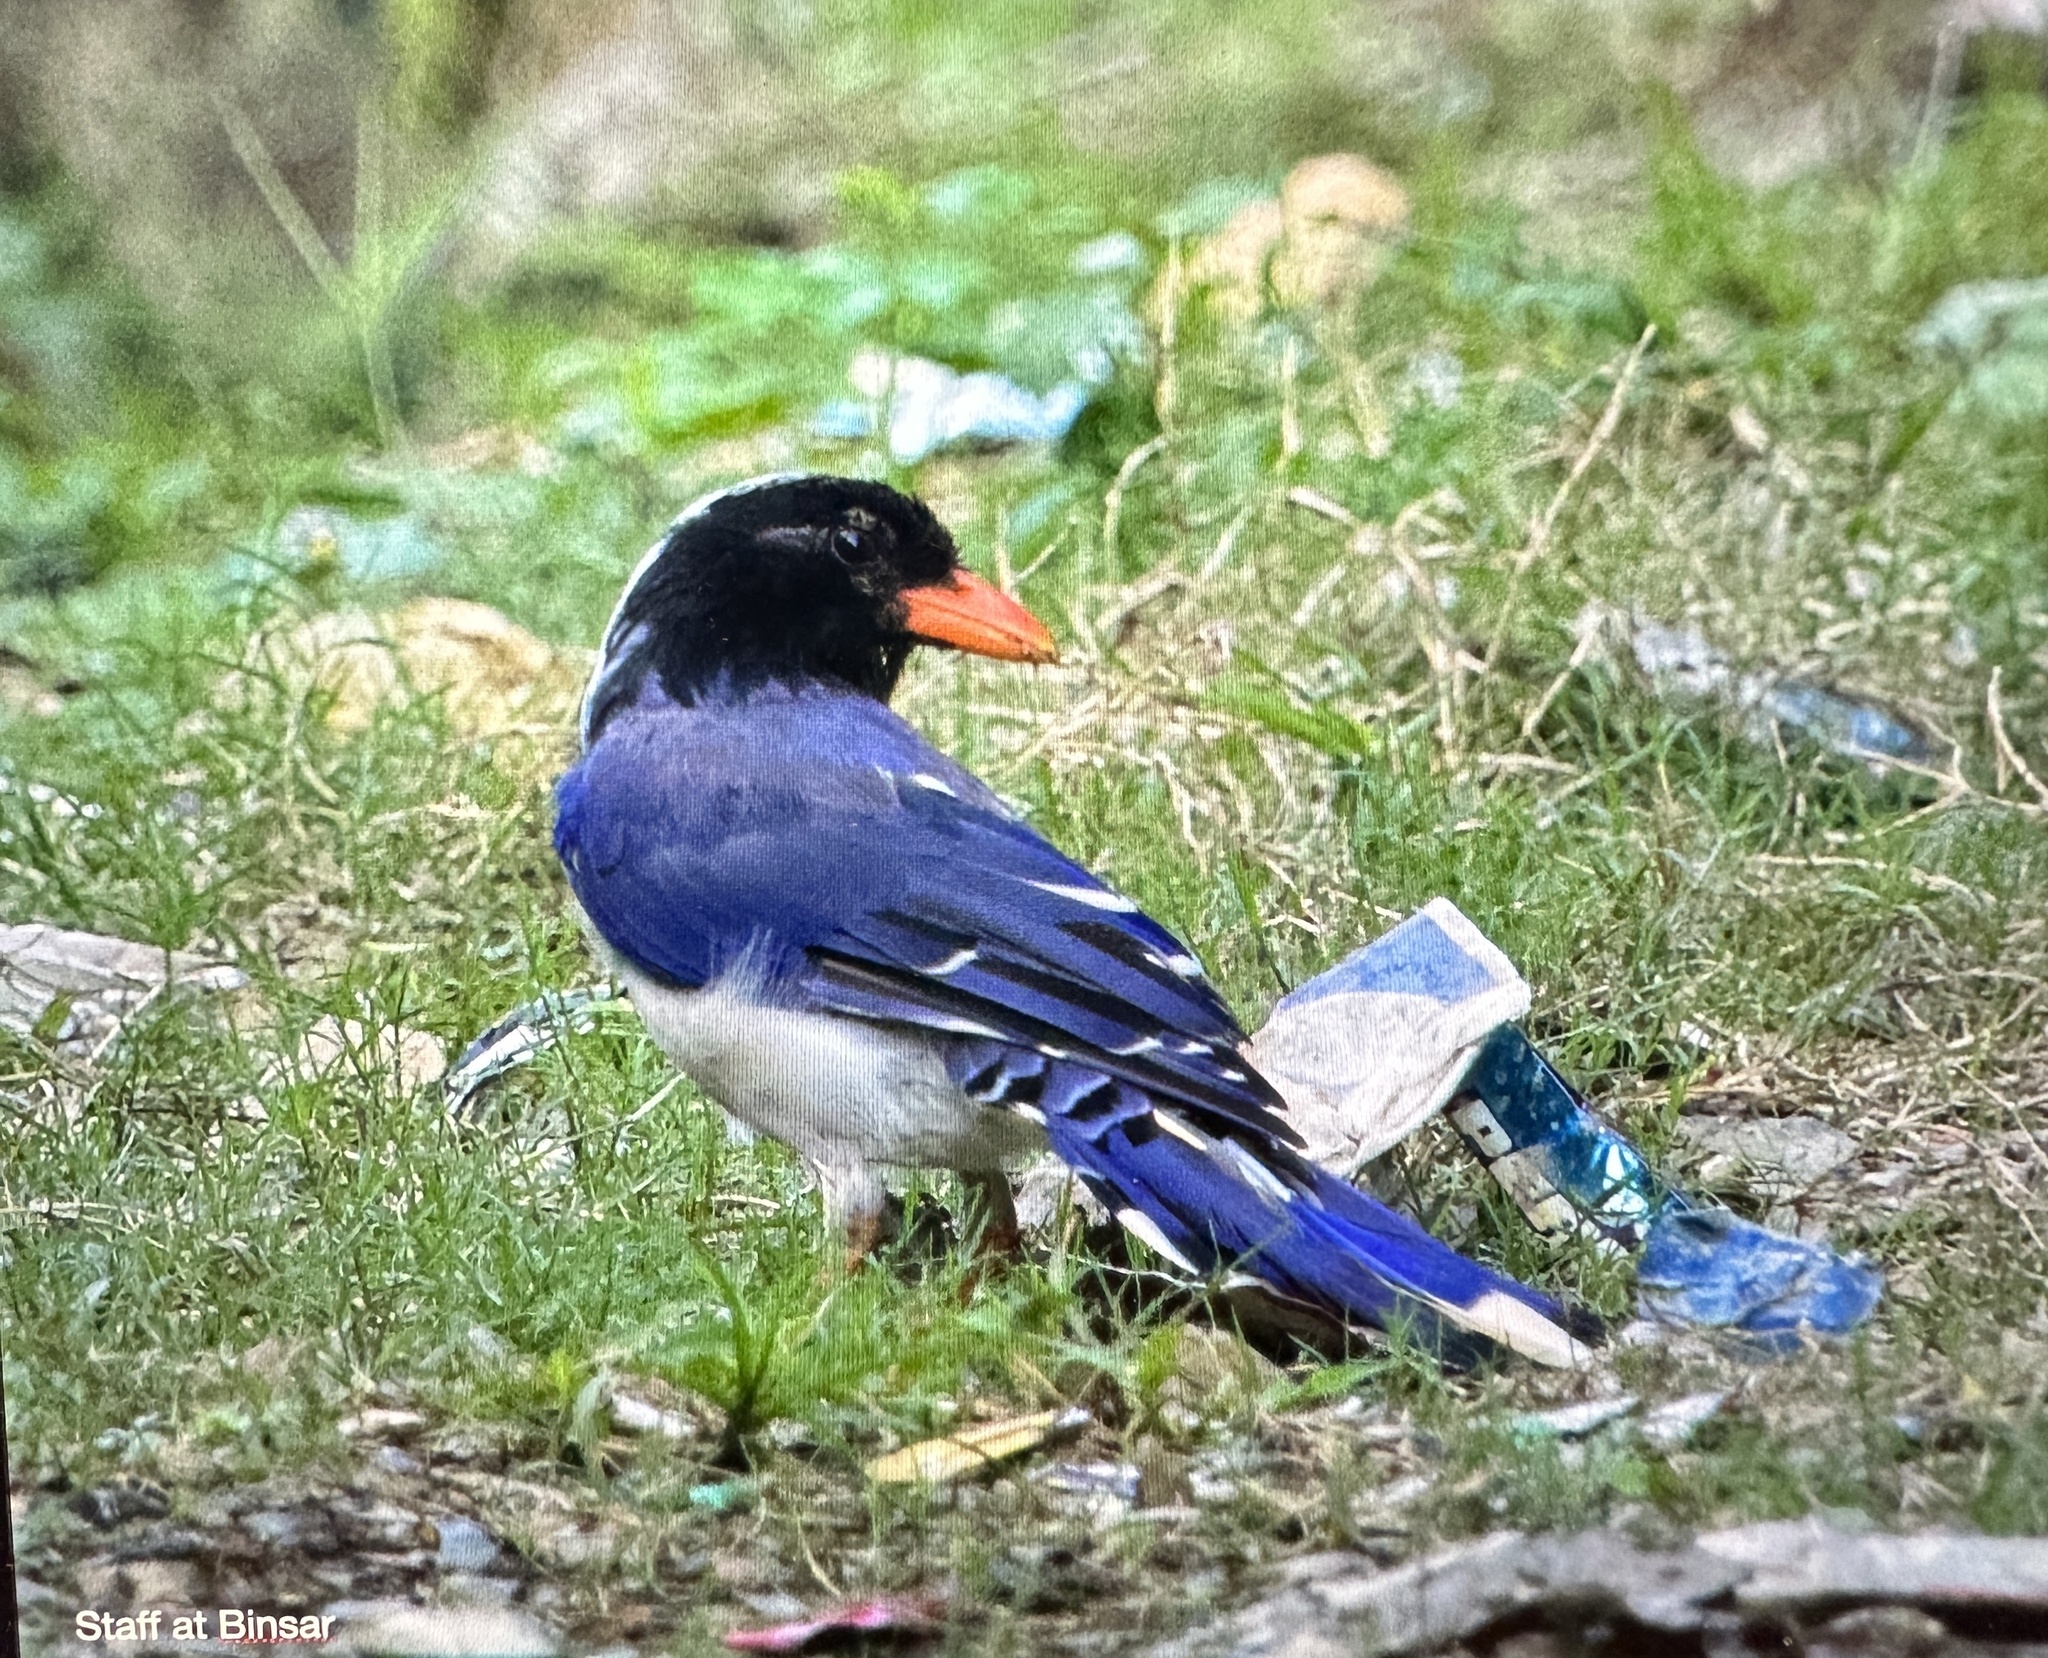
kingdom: Animalia
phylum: Chordata
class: Aves
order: Passeriformes
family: Corvidae
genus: Urocissa
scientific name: Urocissa erythroryncha
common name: Red-billed blue magpie
